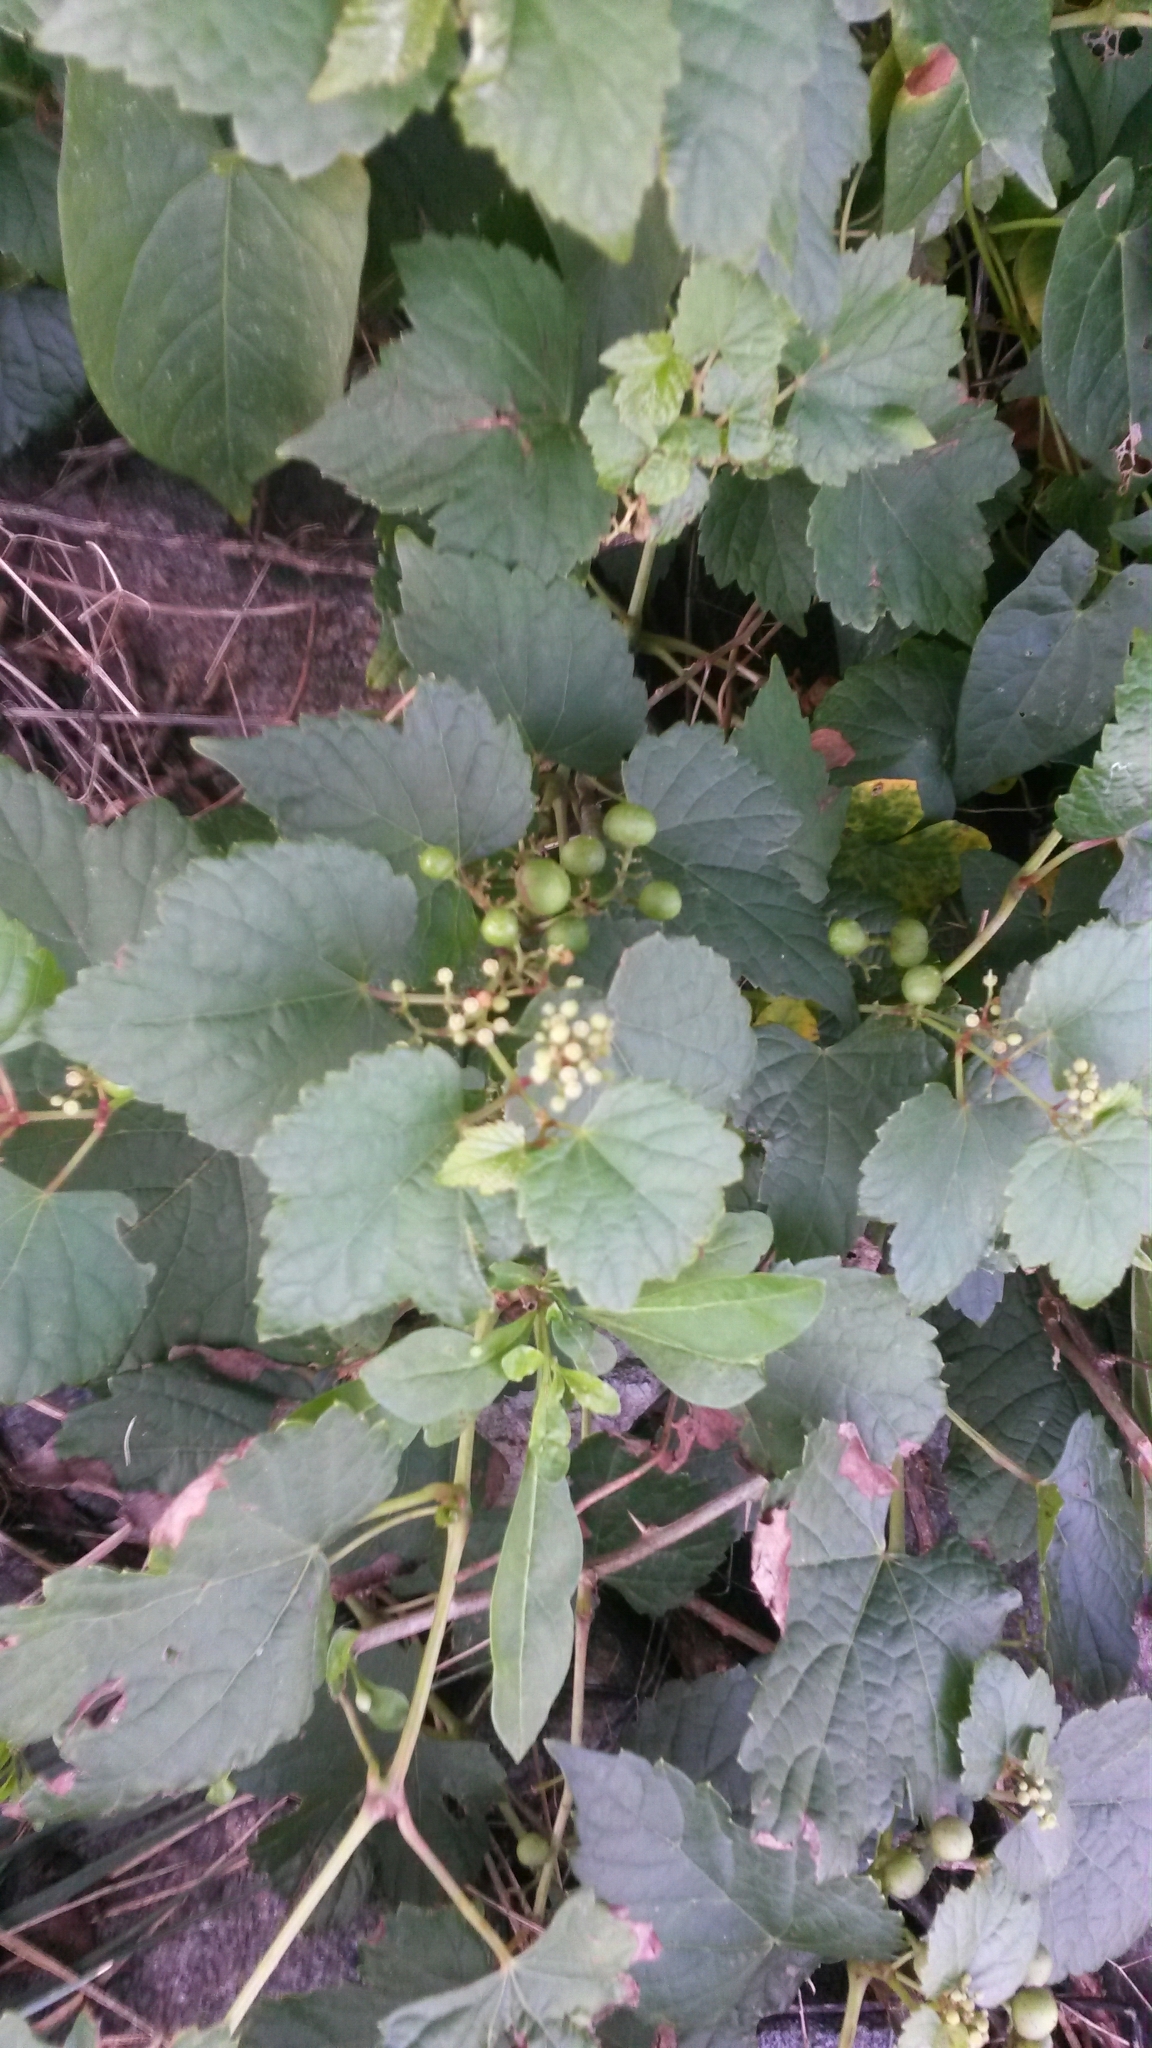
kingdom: Plantae
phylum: Tracheophyta
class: Magnoliopsida
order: Vitales
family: Vitaceae
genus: Ampelopsis
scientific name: Ampelopsis glandulosa
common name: Amur peppervine
